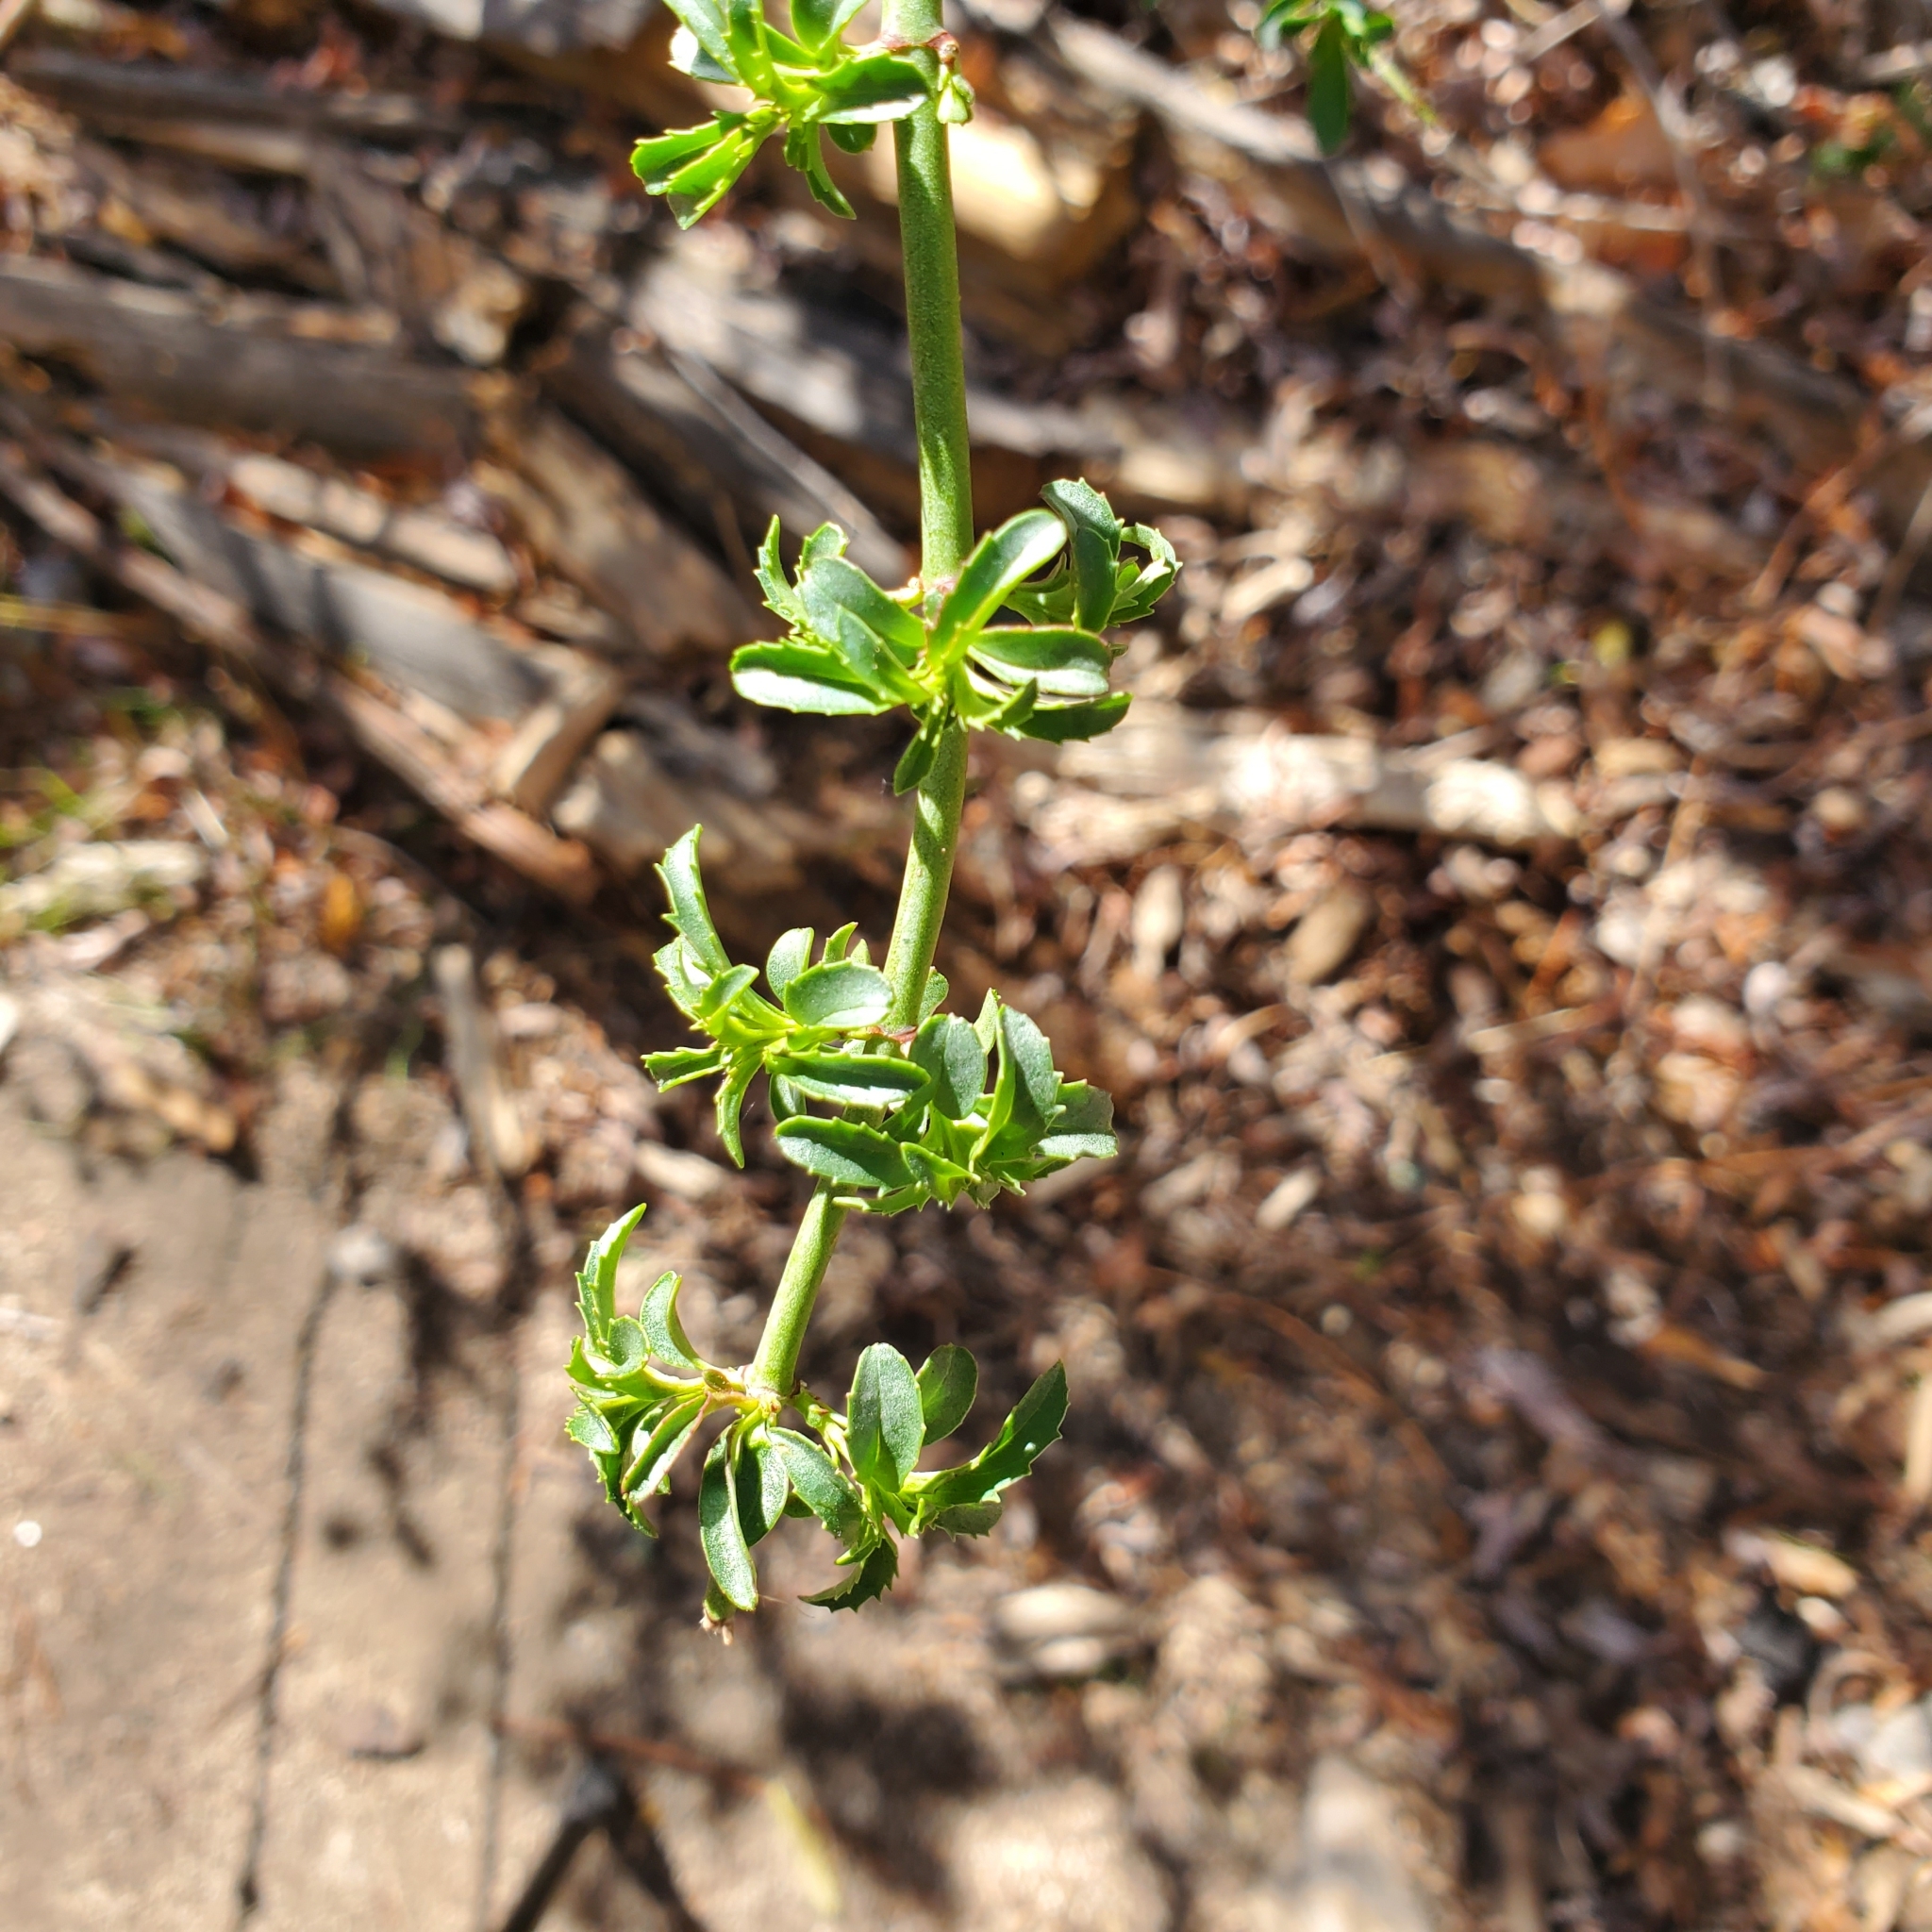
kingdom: Plantae
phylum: Tracheophyta
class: Magnoliopsida
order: Lamiales
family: Plantaginaceae
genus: Keckiella
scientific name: Keckiella ternata
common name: Scarlet keckiella
